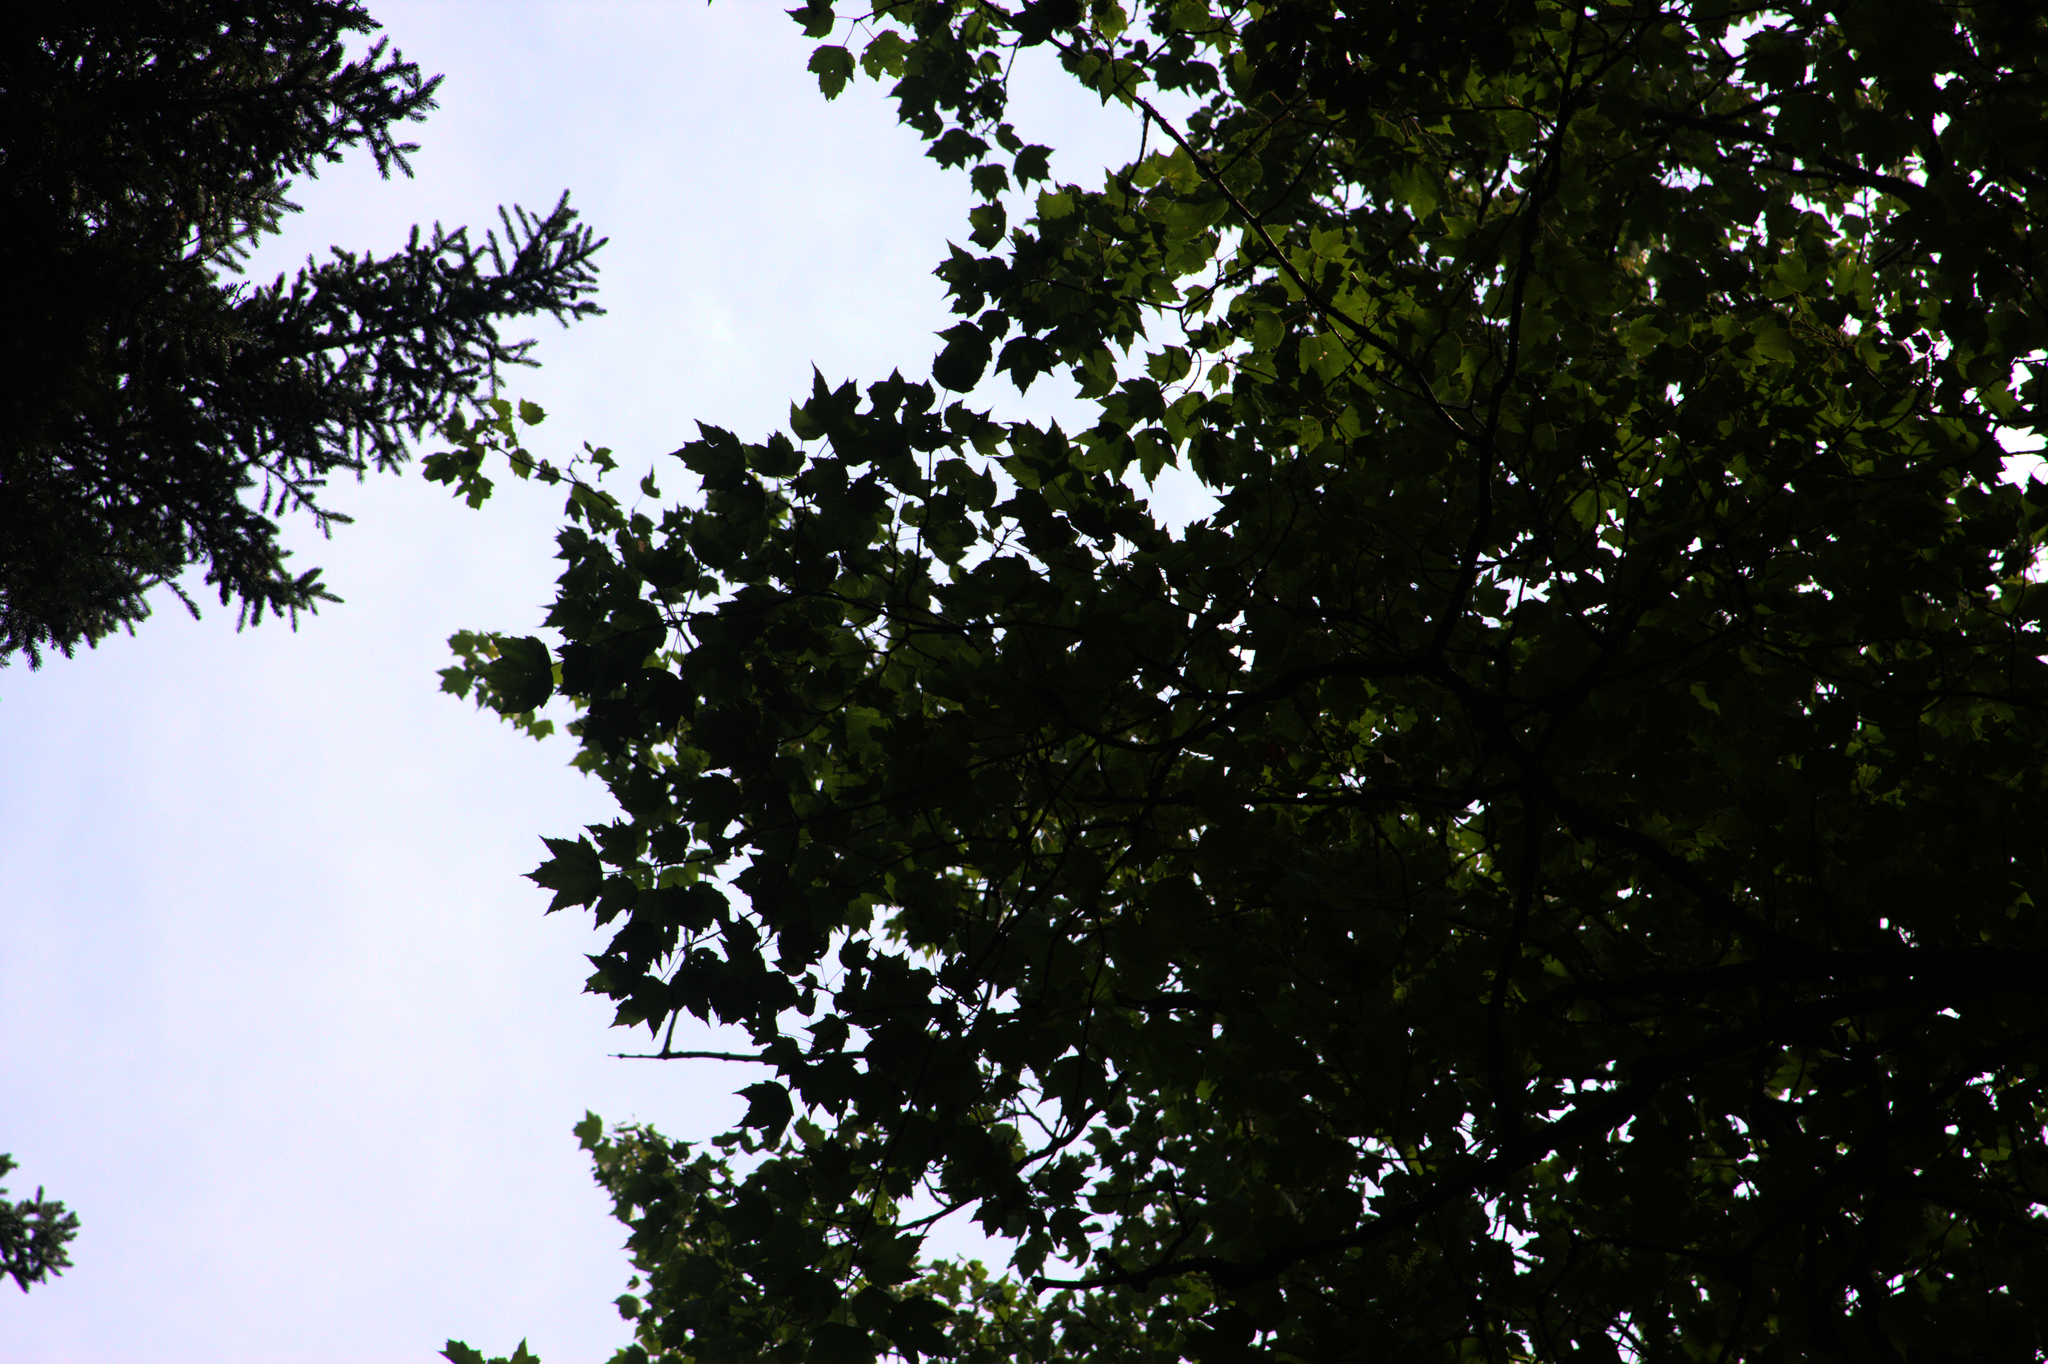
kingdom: Plantae
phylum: Tracheophyta
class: Magnoliopsida
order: Sapindales
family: Sapindaceae
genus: Acer
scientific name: Acer rubrum
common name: Red maple
